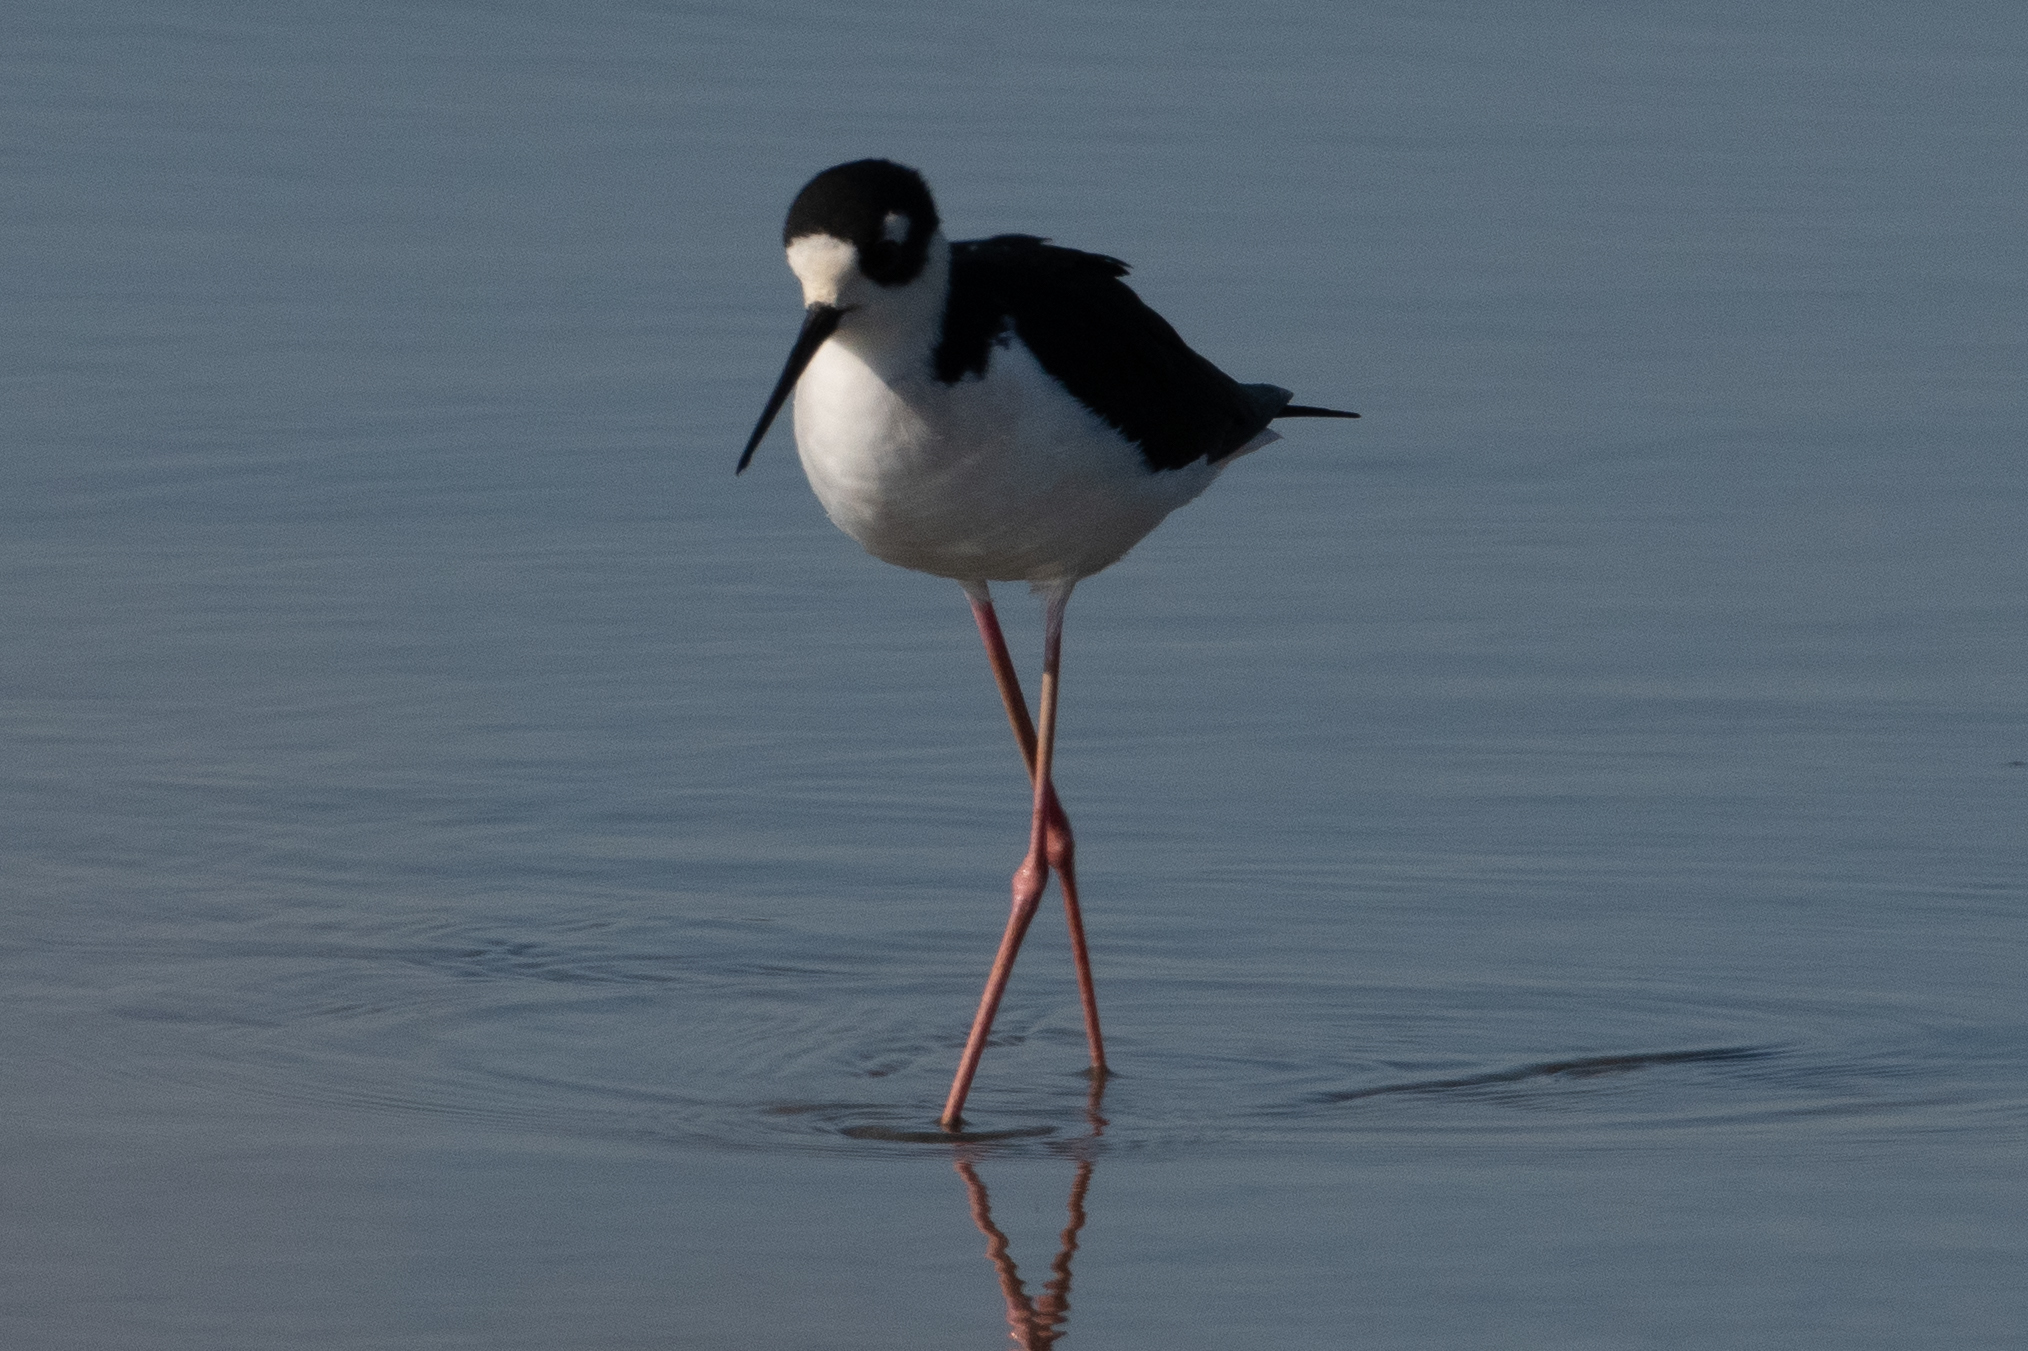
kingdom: Animalia
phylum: Chordata
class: Aves
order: Charadriiformes
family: Recurvirostridae
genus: Himantopus
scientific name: Himantopus mexicanus
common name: Black-necked stilt
